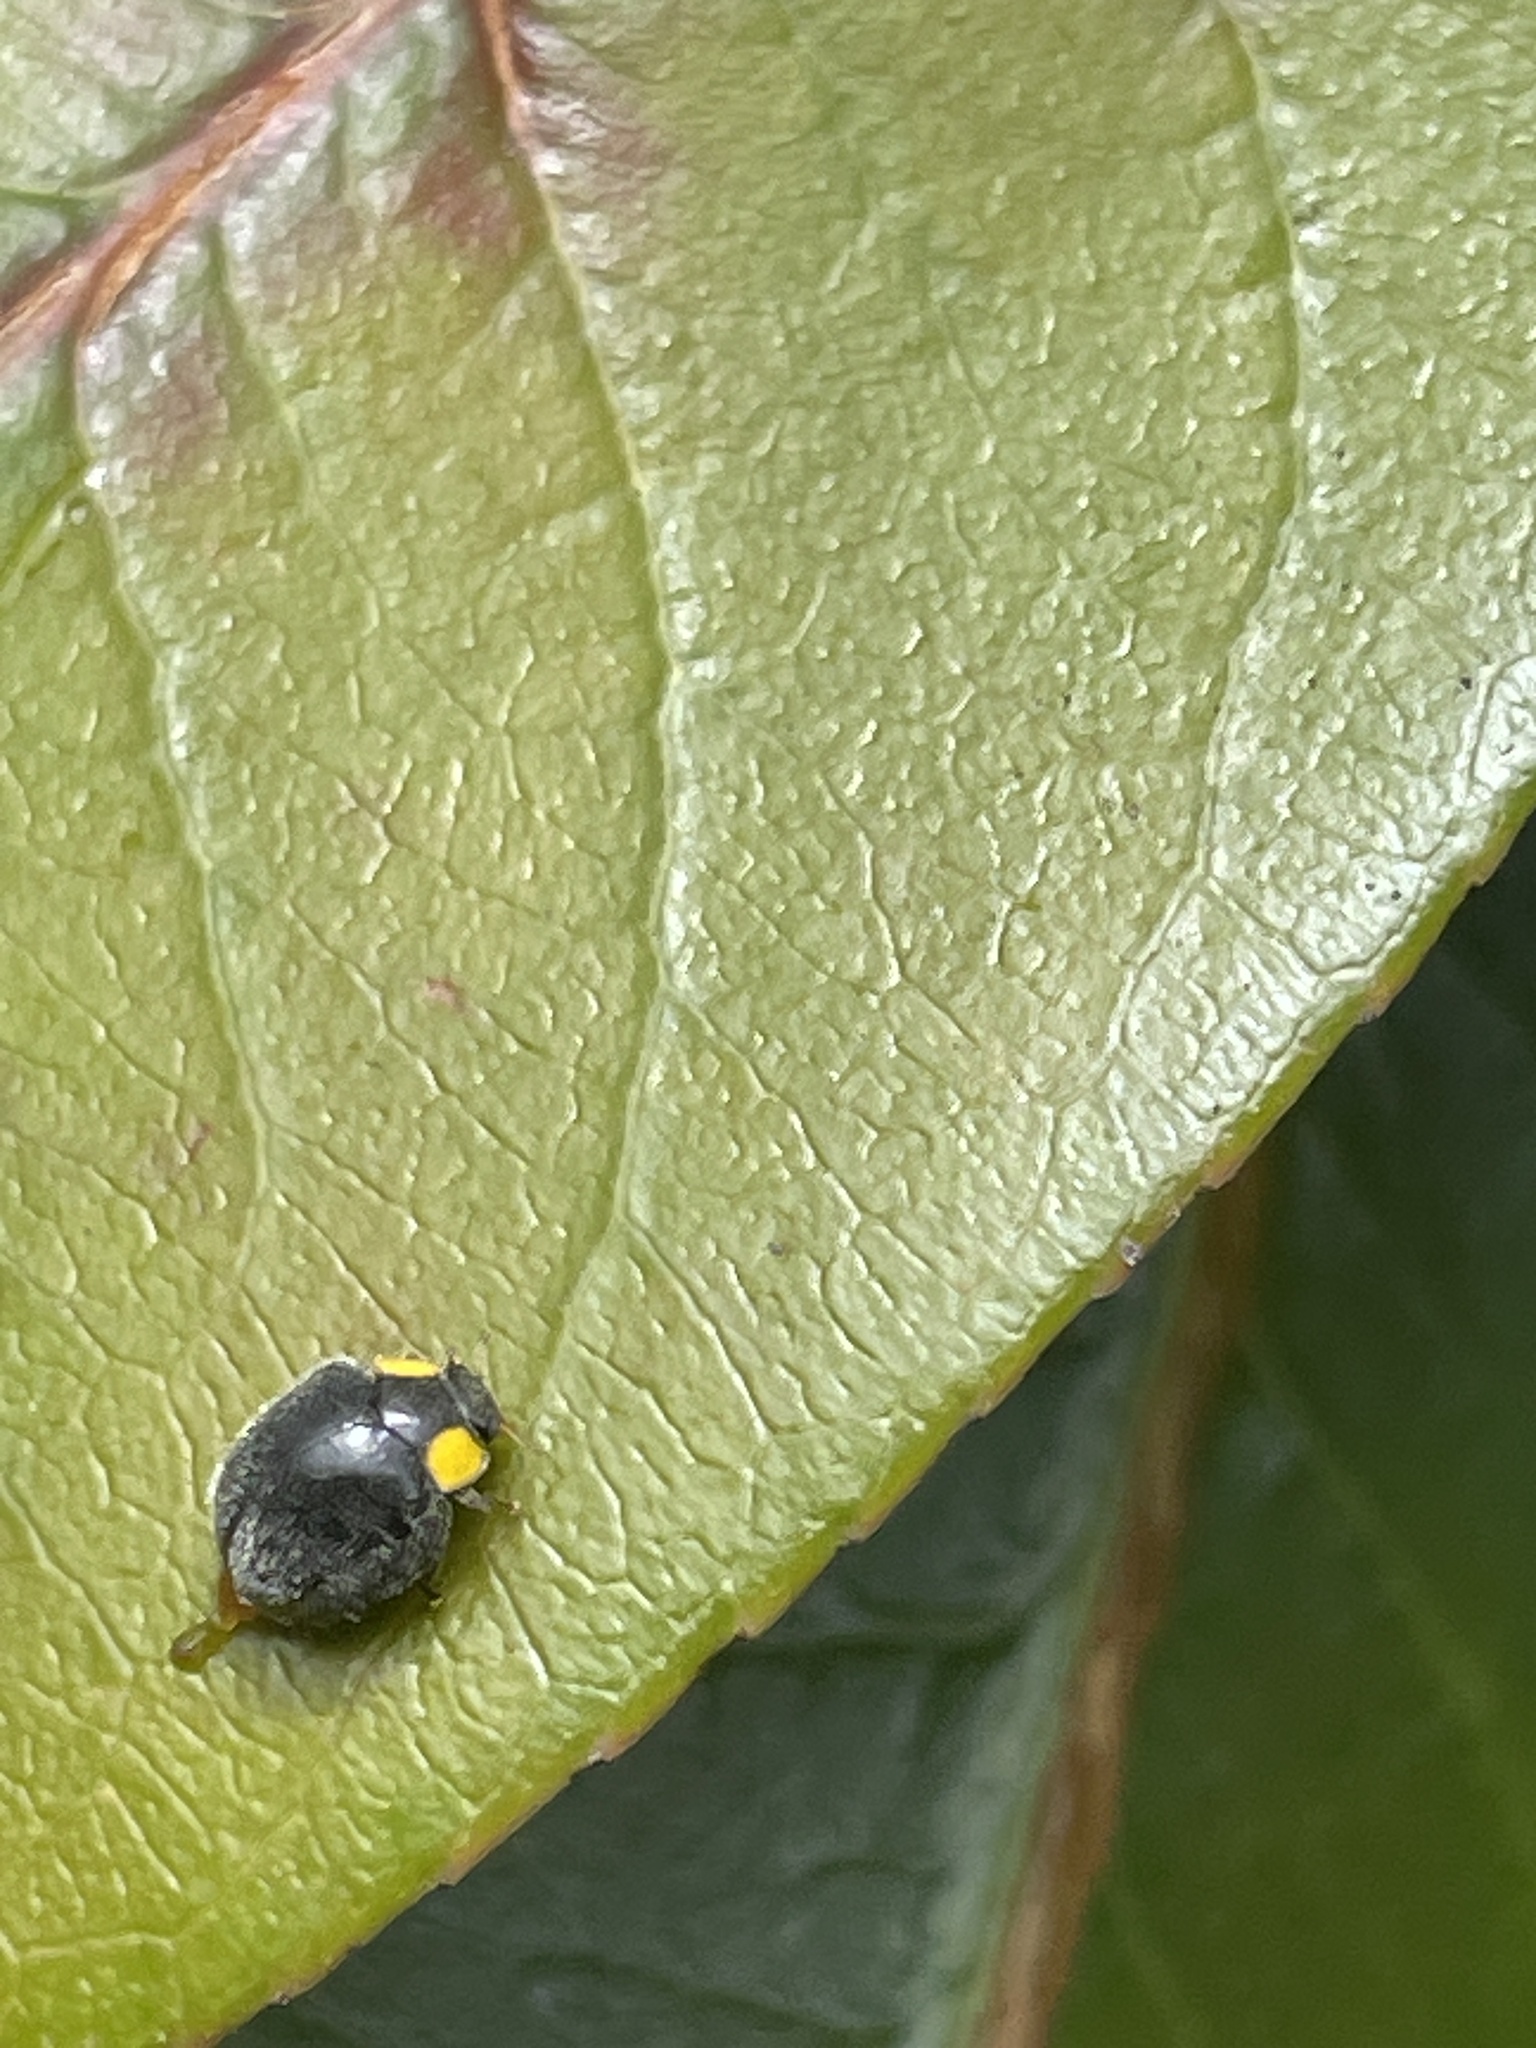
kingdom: Animalia
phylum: Arthropoda
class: Insecta
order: Coleoptera
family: Coccinellidae
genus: Scymnodes
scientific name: Scymnodes lividigaster
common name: Yellowshouldered lady beetle
